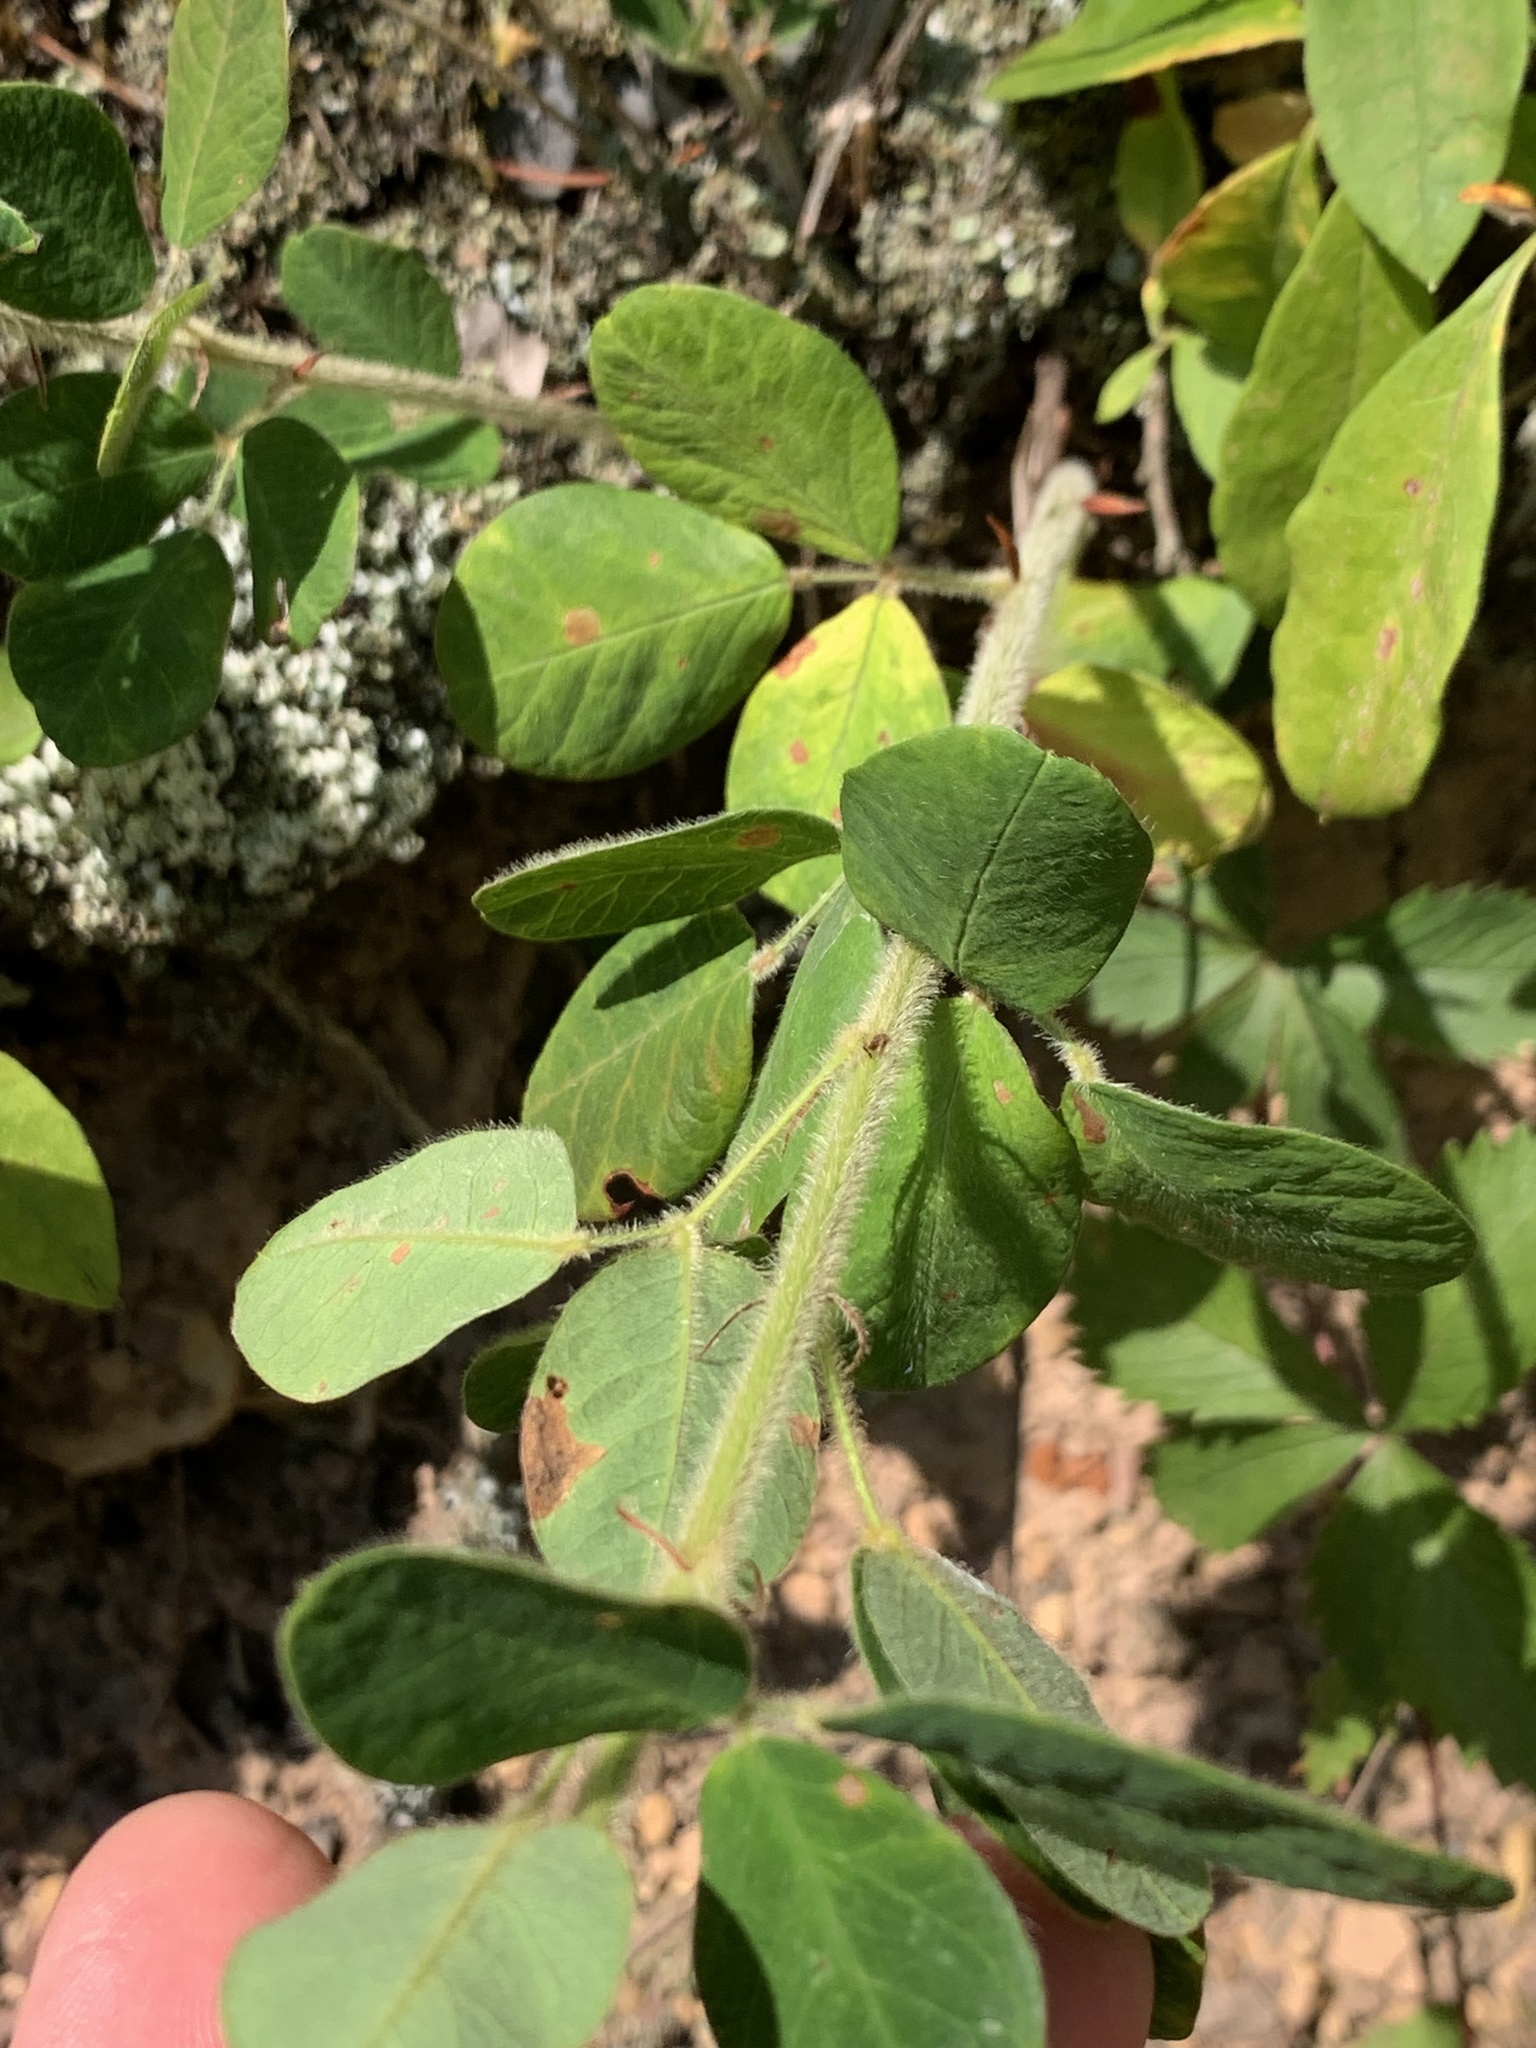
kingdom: Plantae
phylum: Tracheophyta
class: Magnoliopsida
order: Fabales
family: Fabaceae
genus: Lespedeza
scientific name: Lespedeza hirta
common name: Hairy lespedeza
